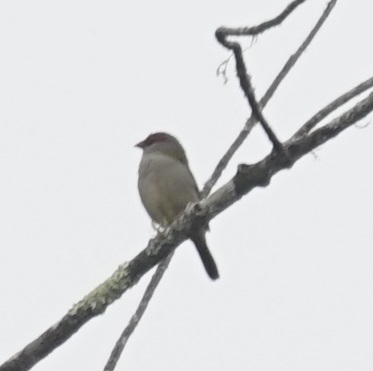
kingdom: Animalia
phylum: Chordata
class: Aves
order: Passeriformes
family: Estrildidae
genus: Neochmia
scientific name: Neochmia temporalis
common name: Red-browed finch
